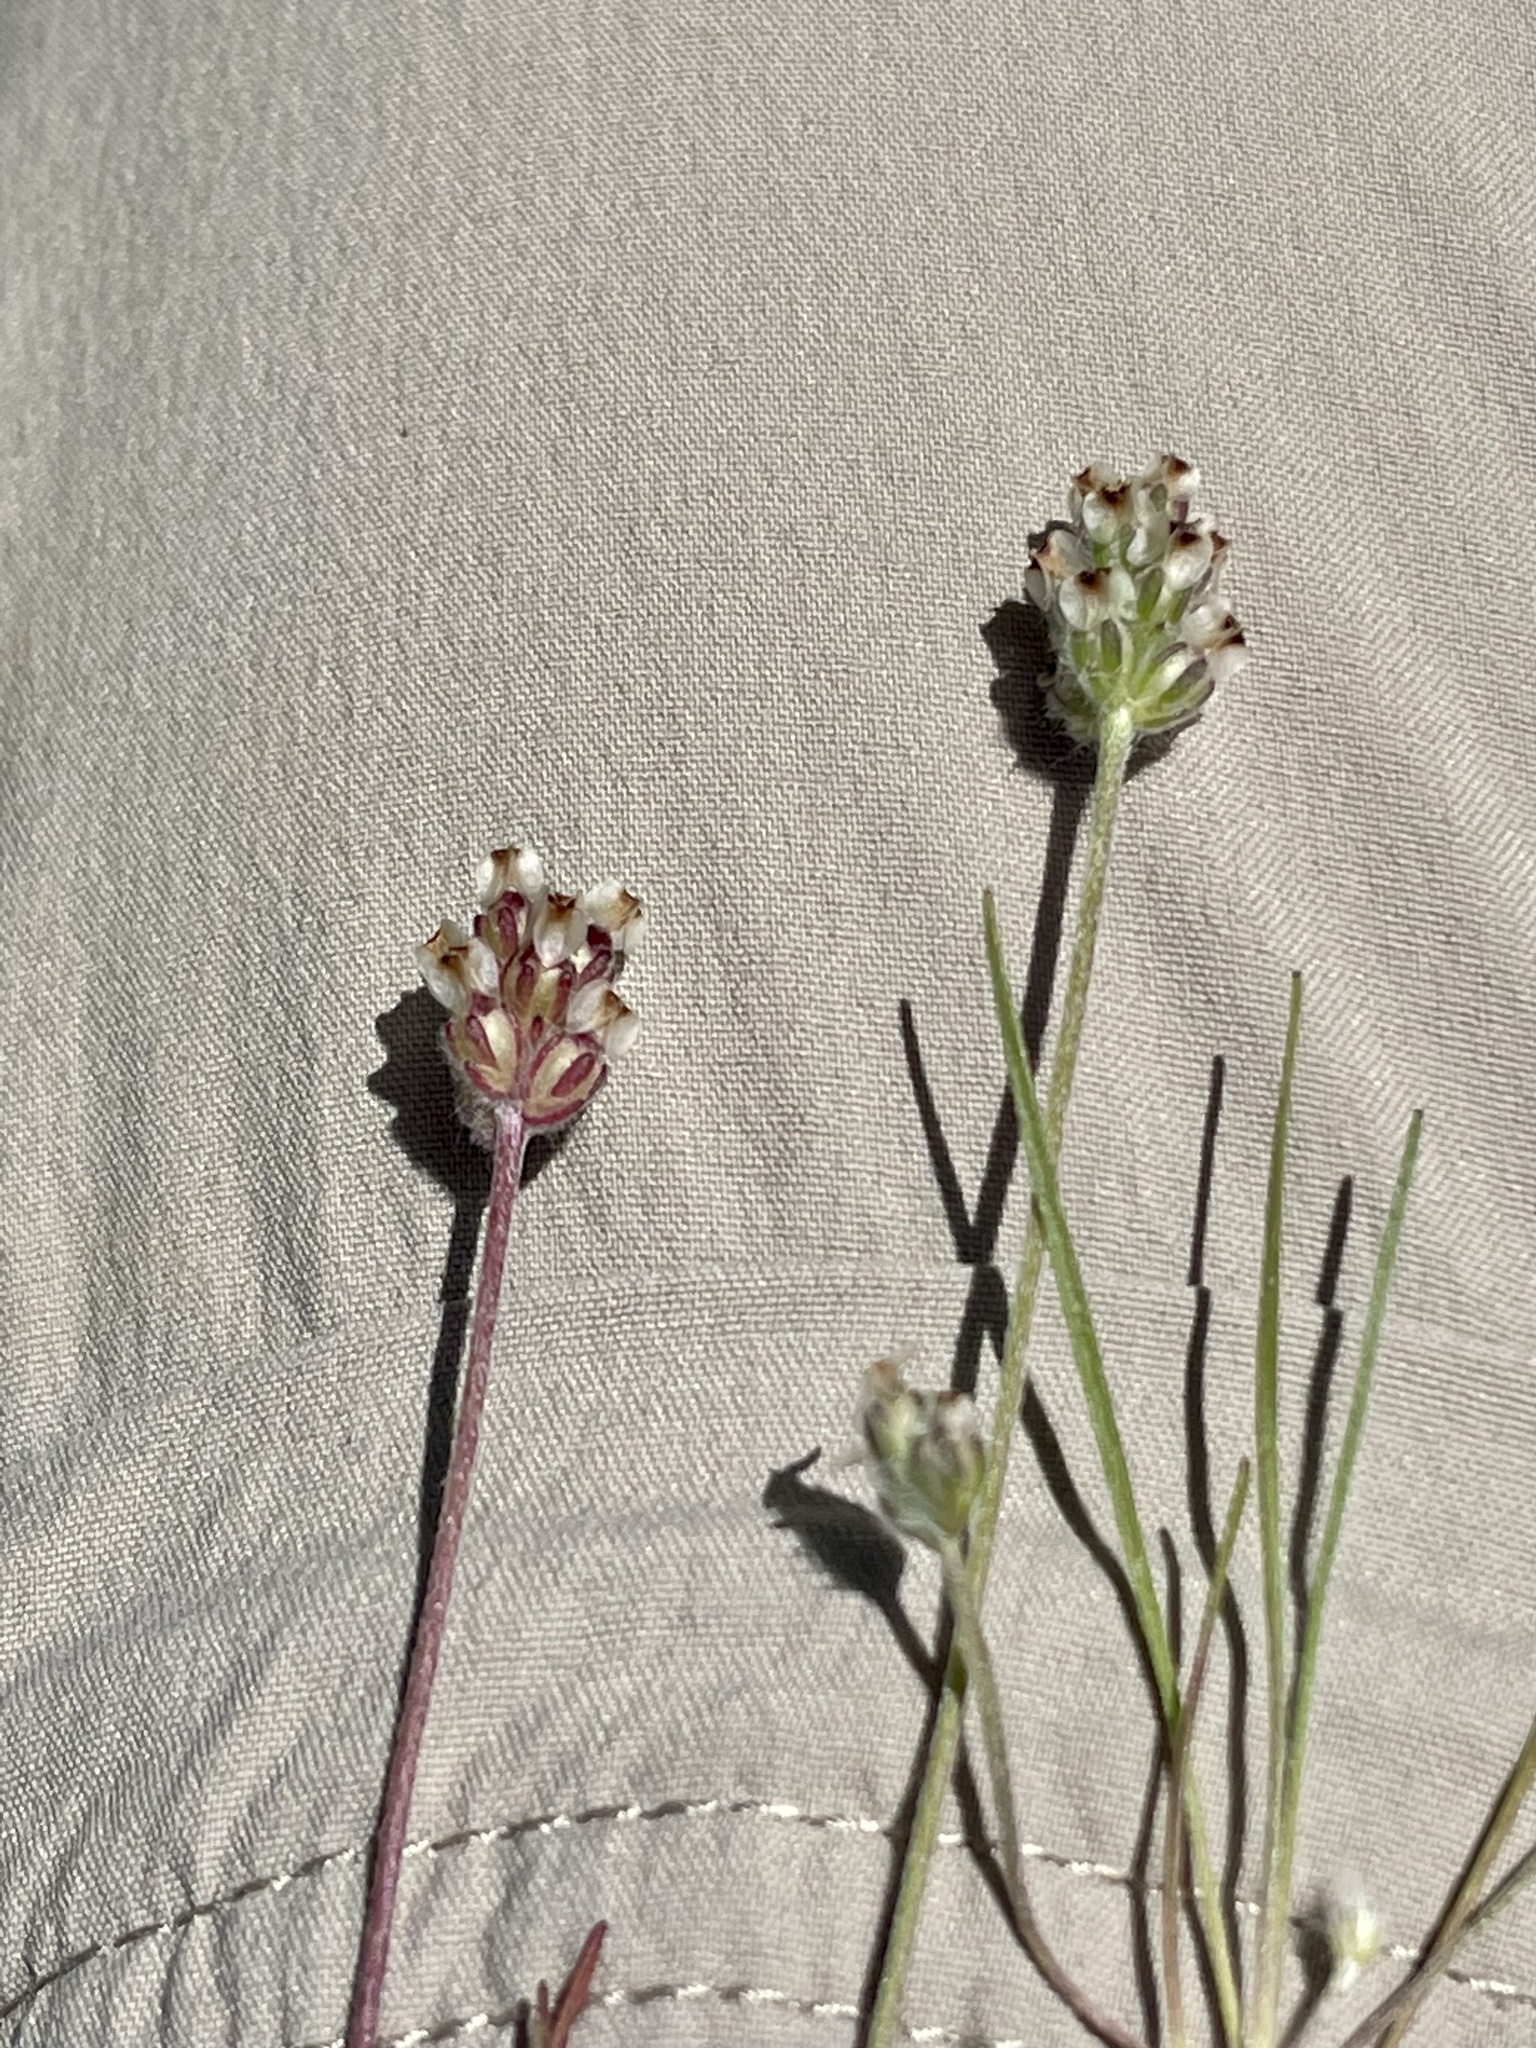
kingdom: Plantae
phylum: Tracheophyta
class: Magnoliopsida
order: Lamiales
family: Plantaginaceae
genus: Plantago
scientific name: Plantago erecta
